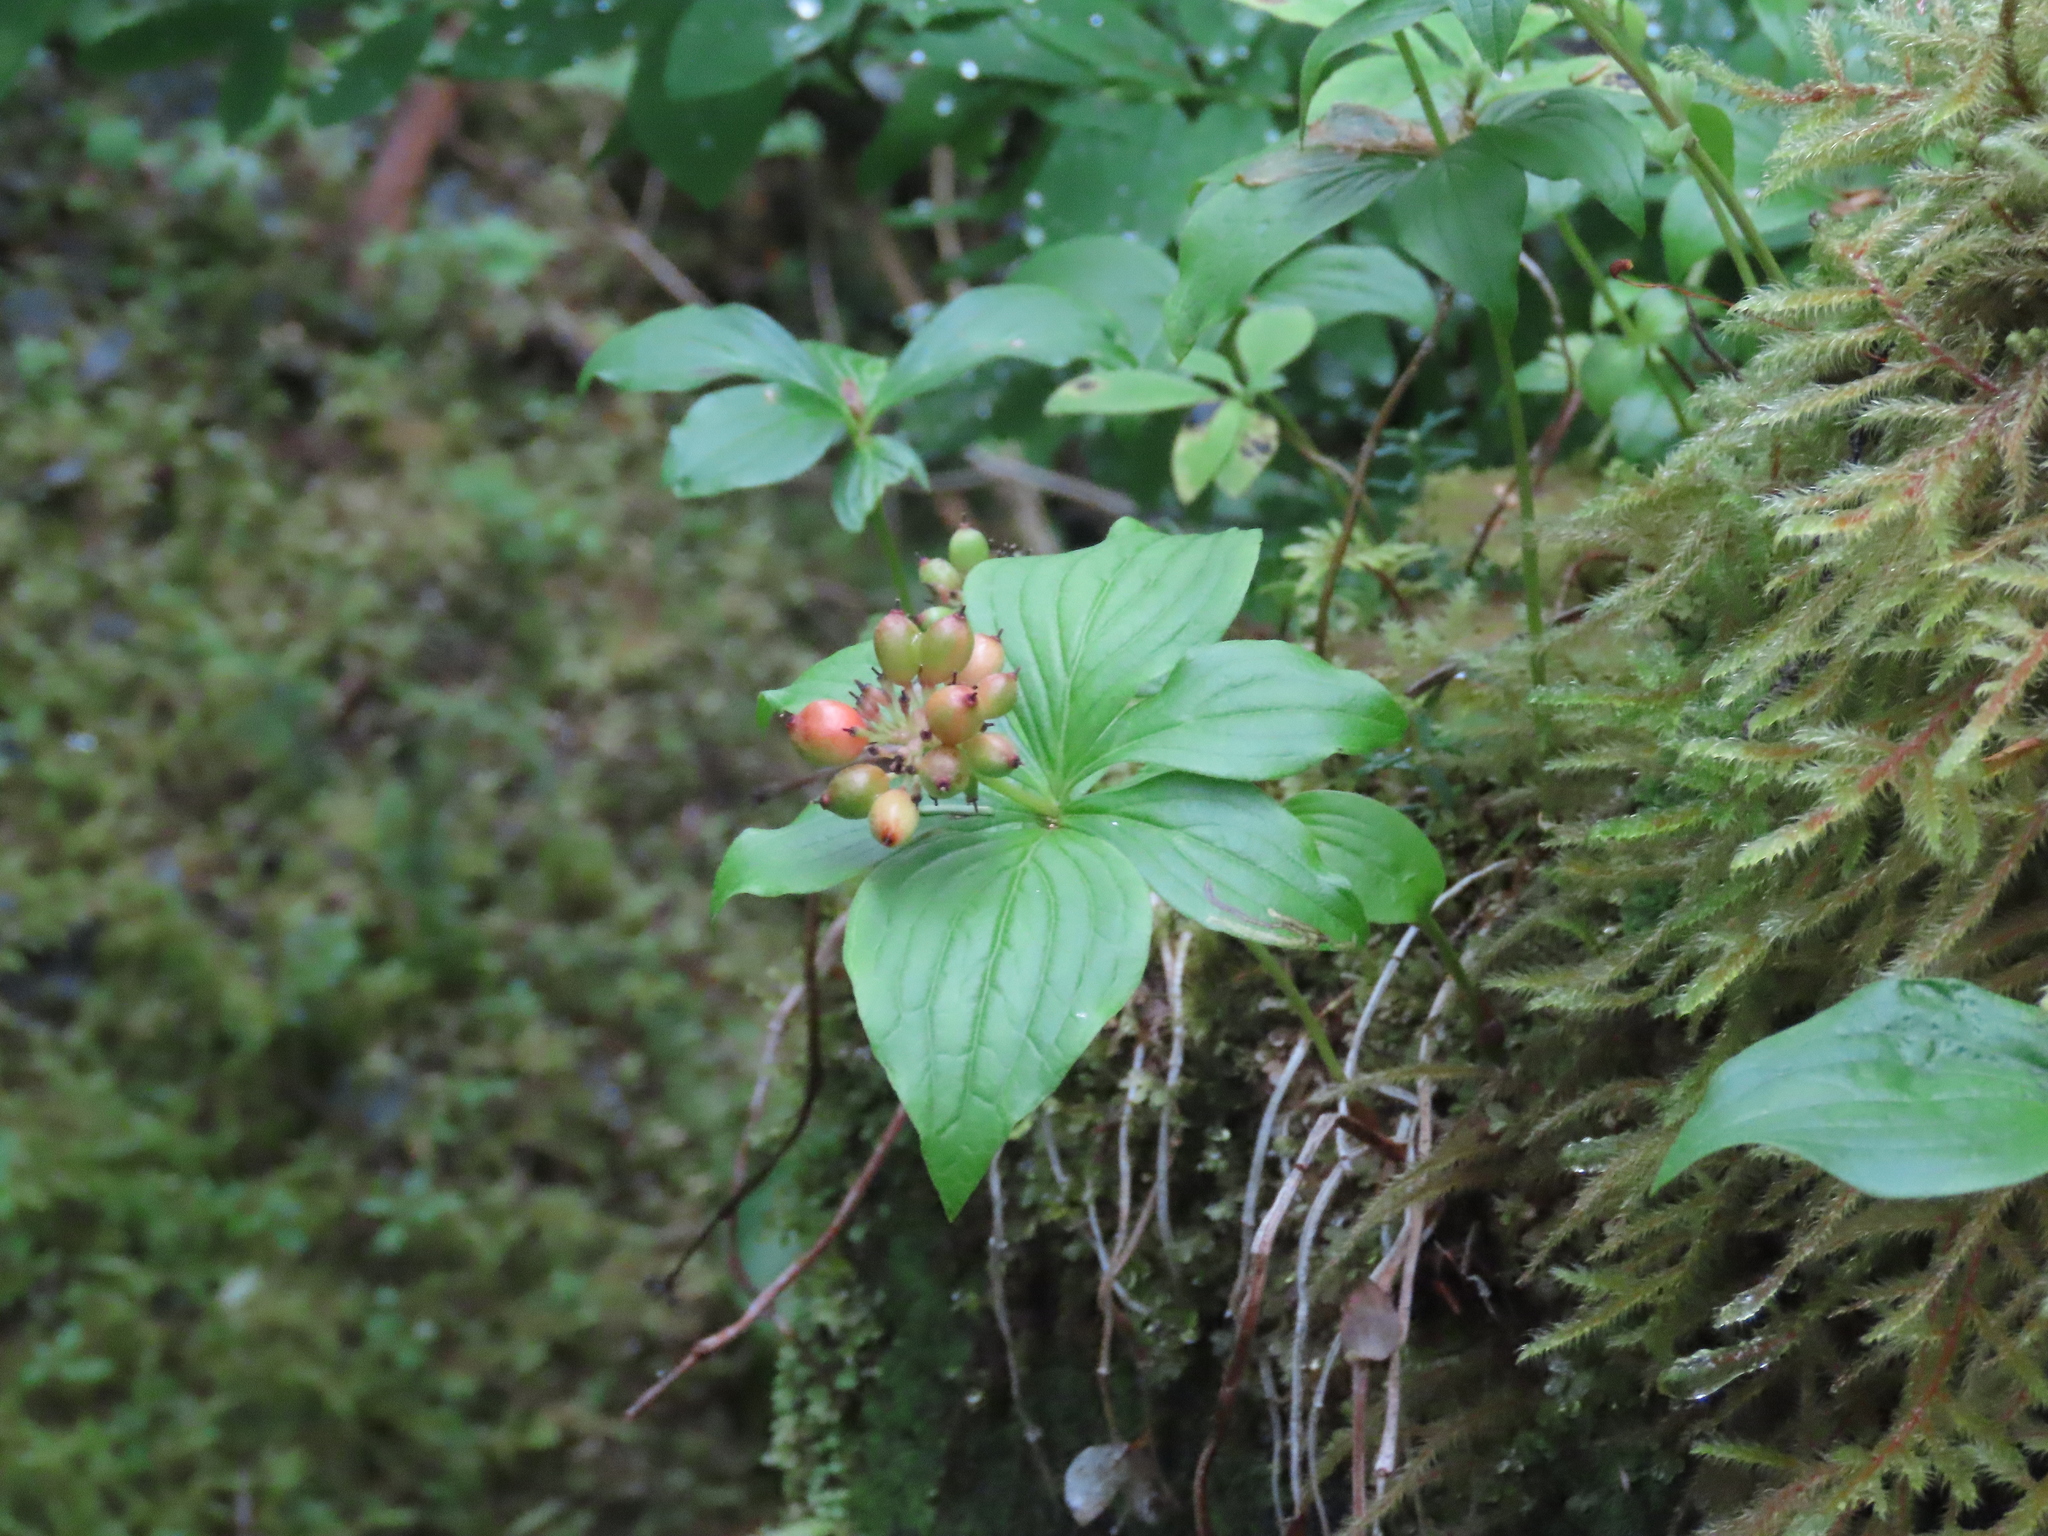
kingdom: Plantae
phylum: Tracheophyta
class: Magnoliopsida
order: Cornales
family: Cornaceae
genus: Cornus
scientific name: Cornus unalaschkensis
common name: Alaska bunchberry
